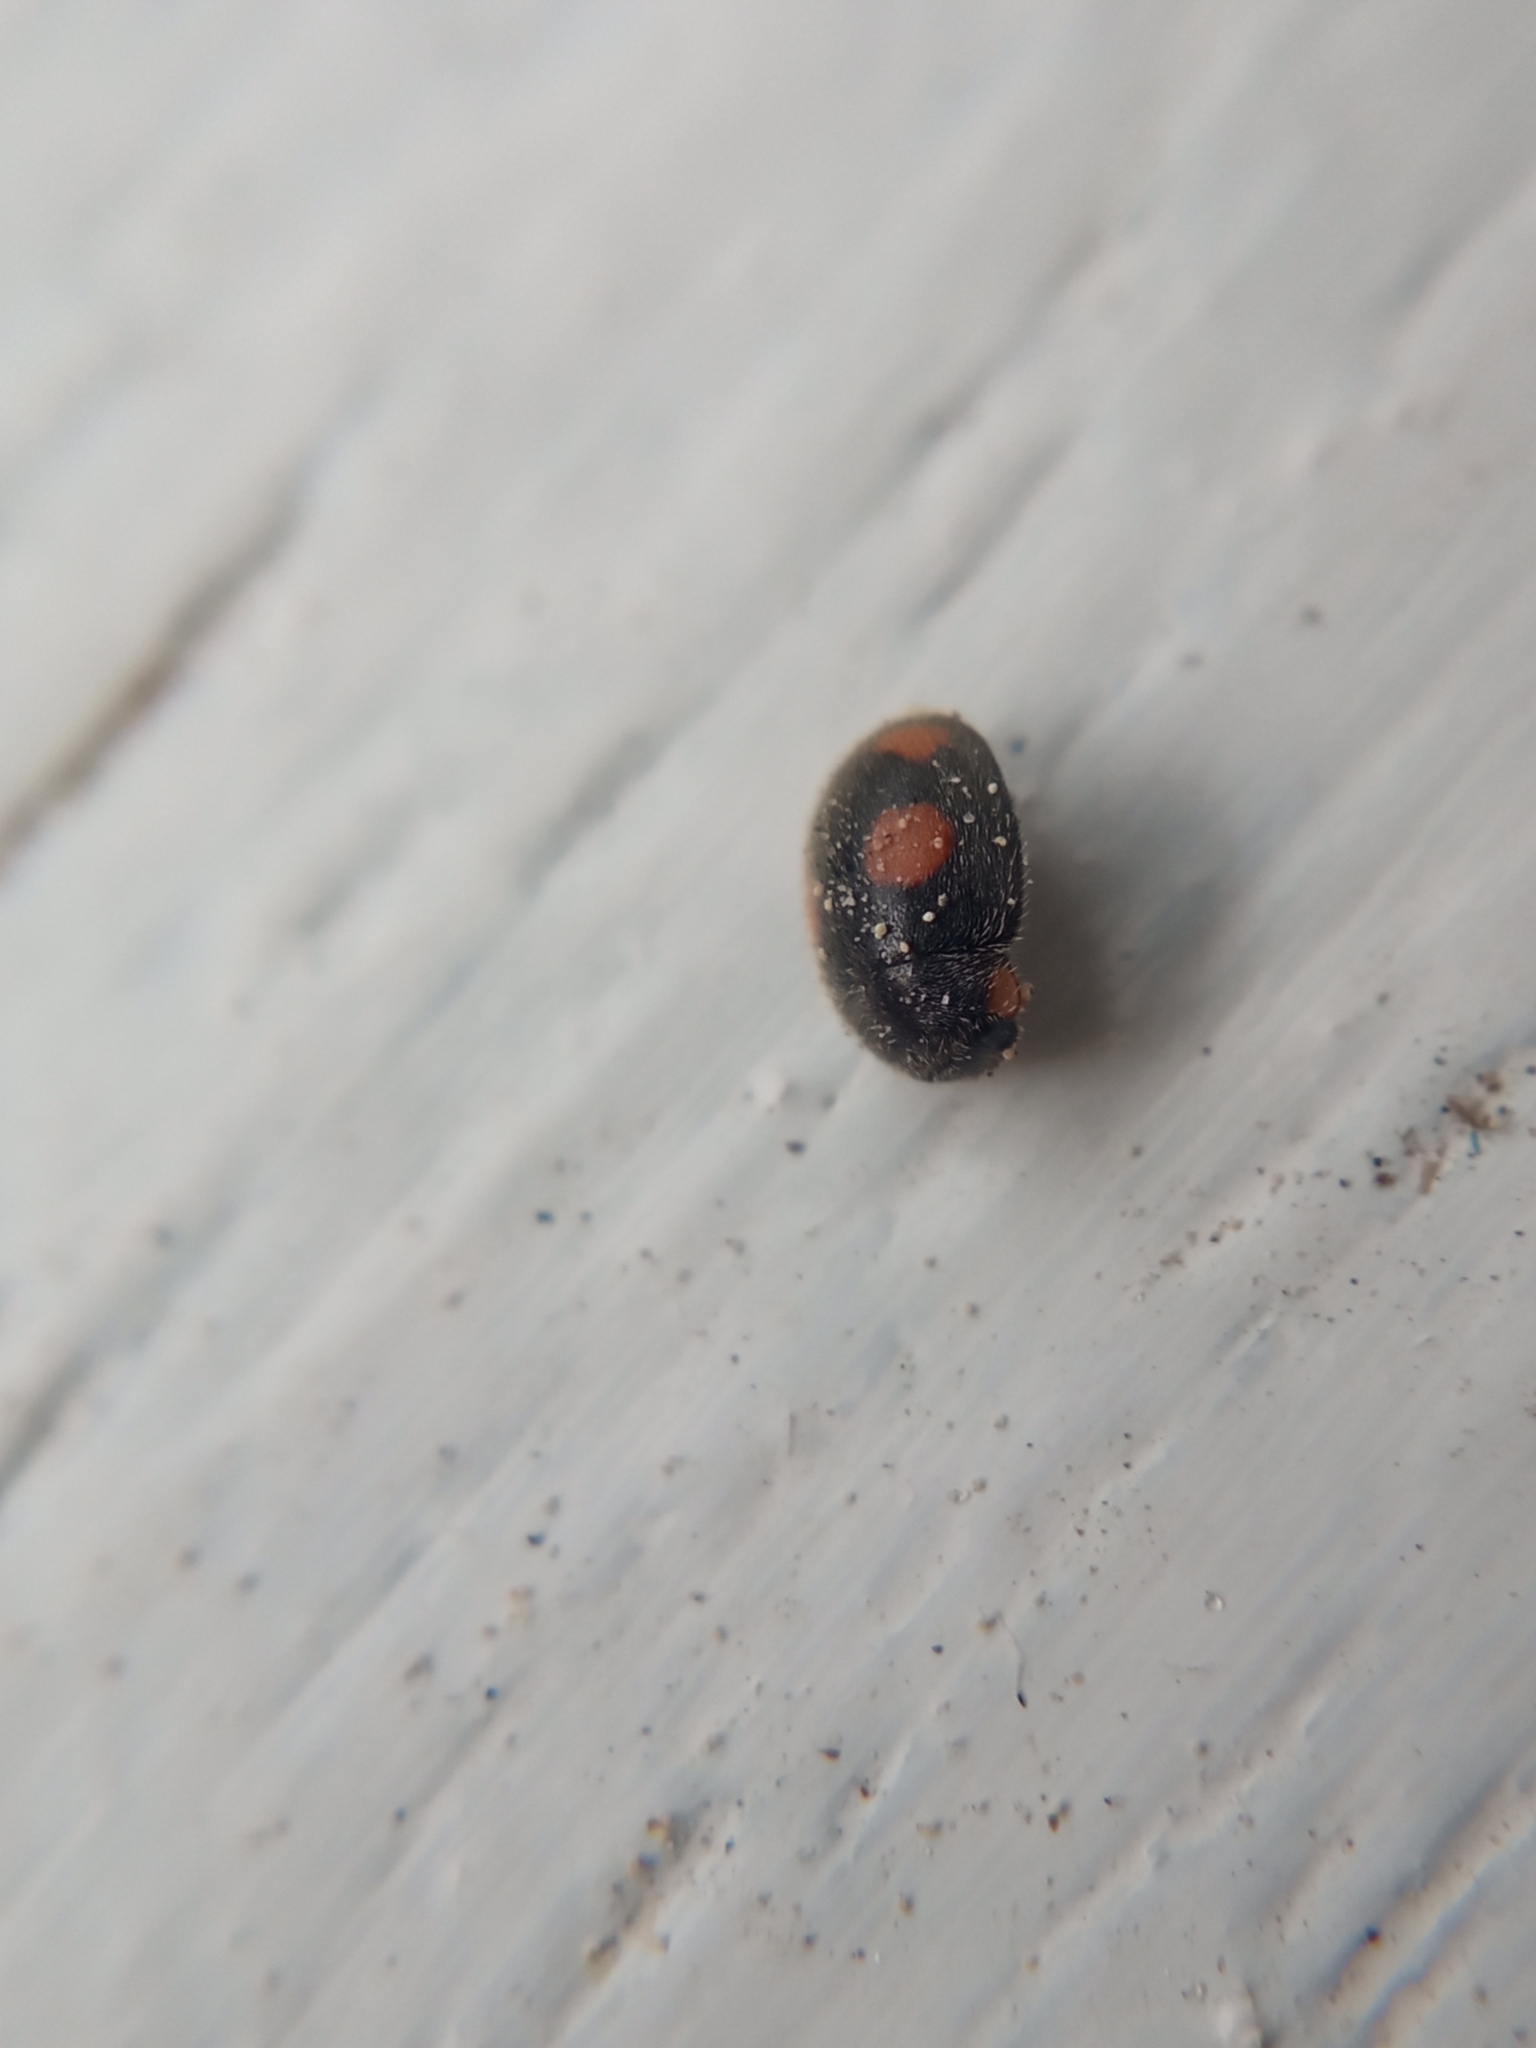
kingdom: Animalia
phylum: Arthropoda
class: Insecta
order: Coleoptera
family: Coccinellidae
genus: Platynaspis
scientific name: Platynaspis luteorubra
